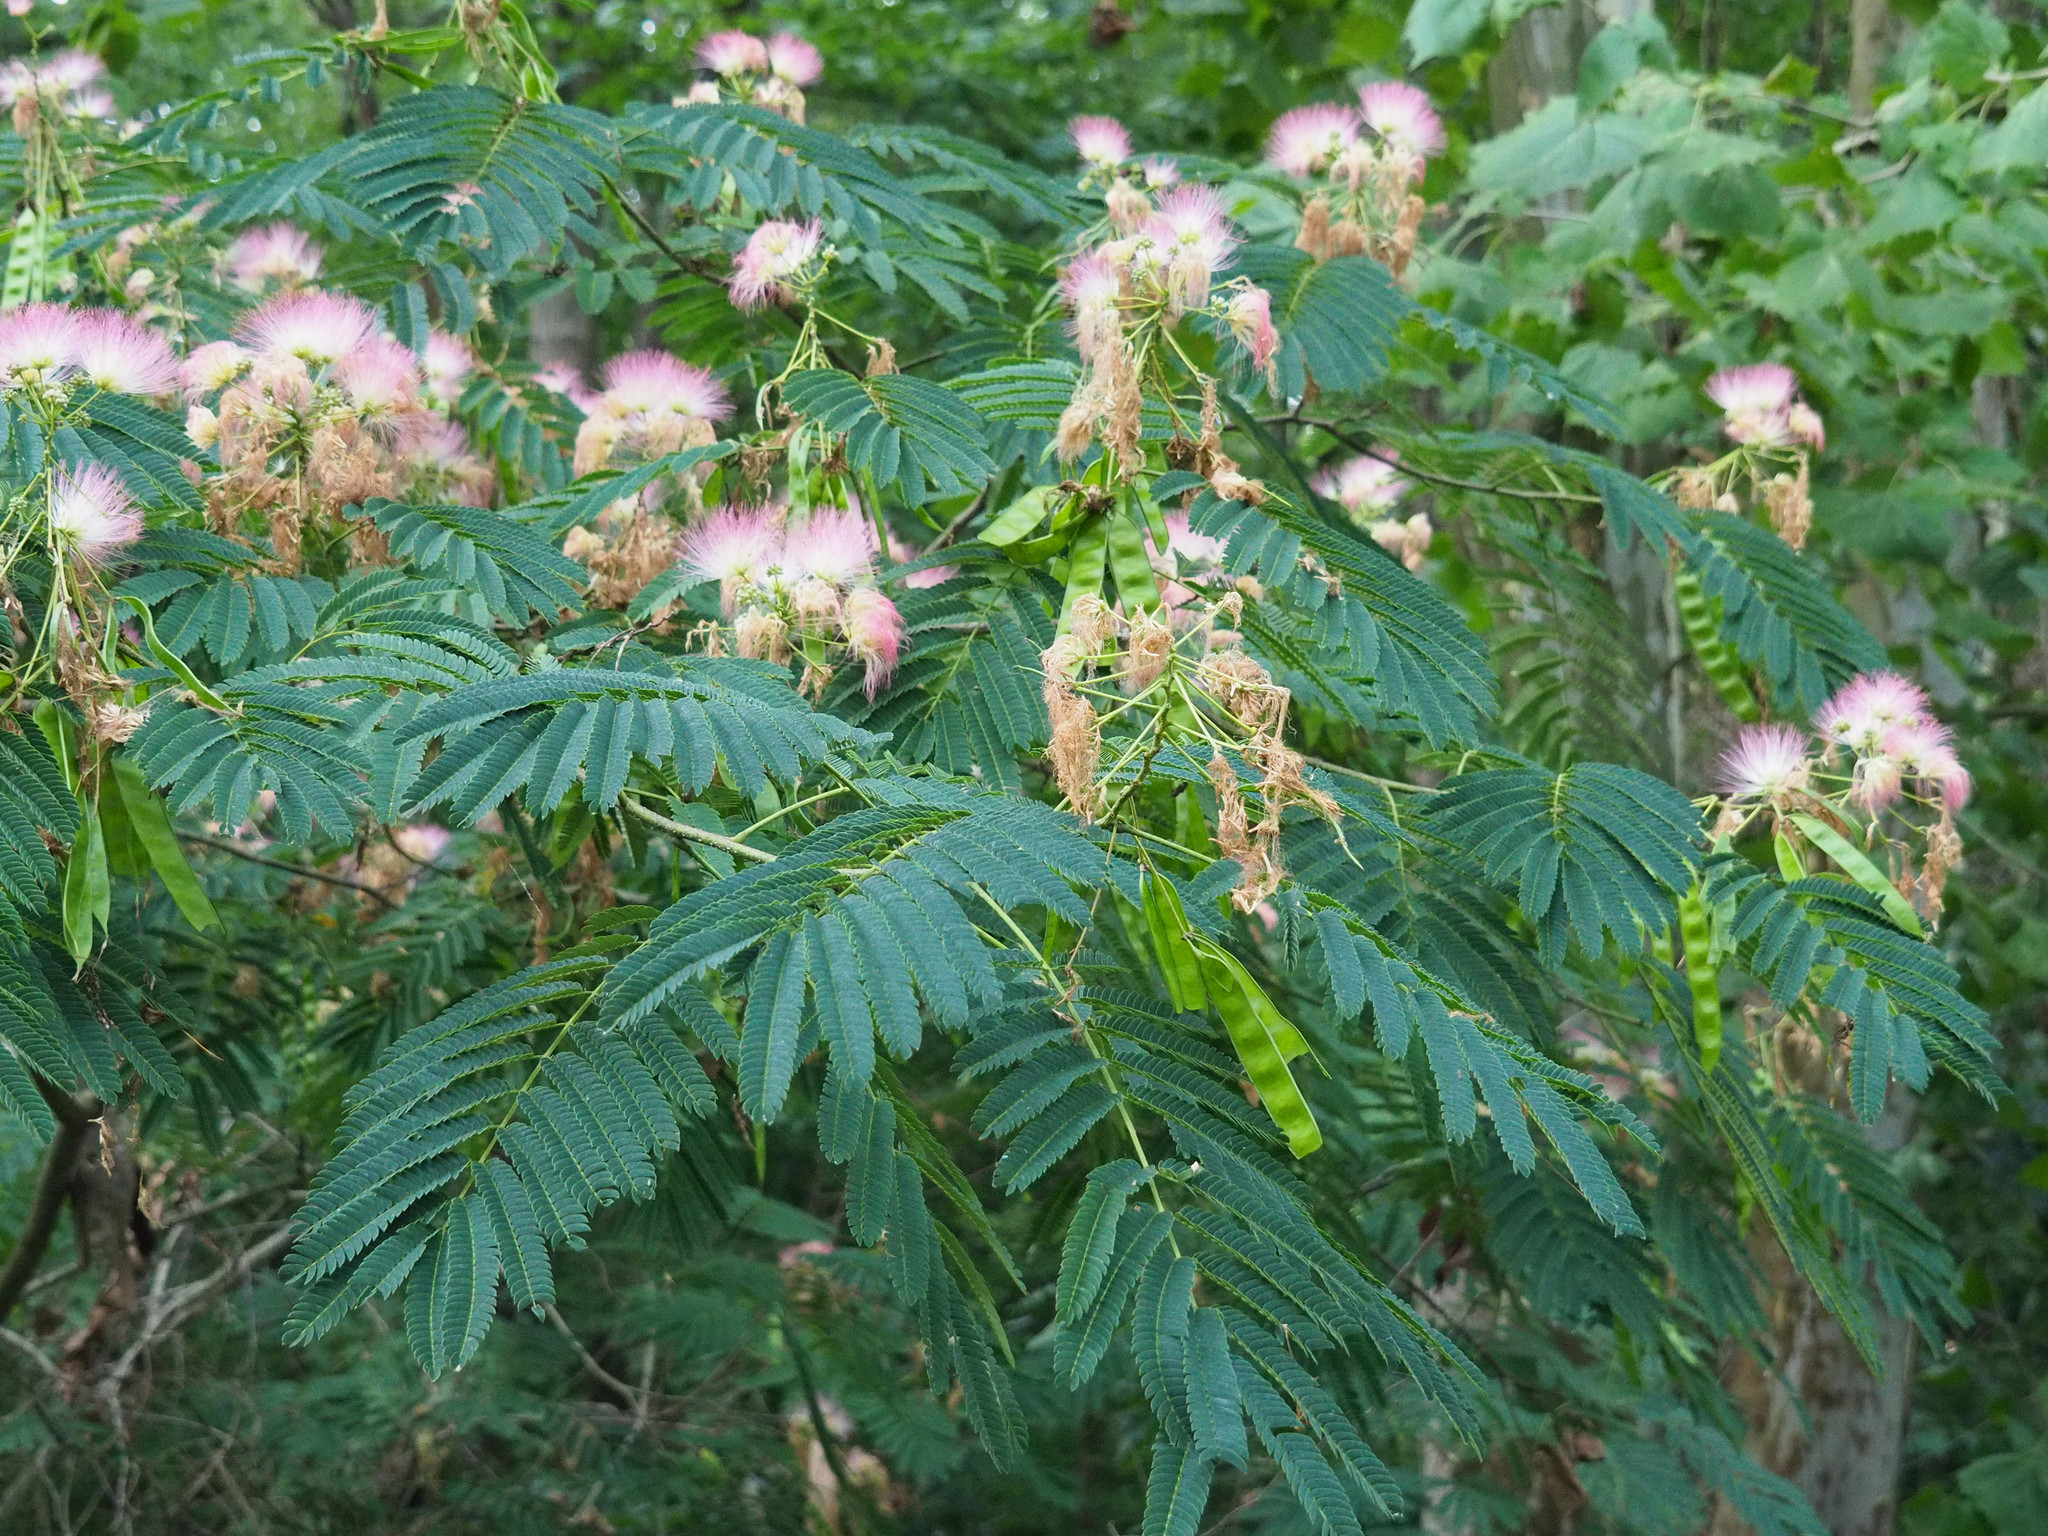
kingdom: Plantae
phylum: Tracheophyta
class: Magnoliopsida
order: Fabales
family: Fabaceae
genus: Albizia
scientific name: Albizia julibrissin
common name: Silktree
